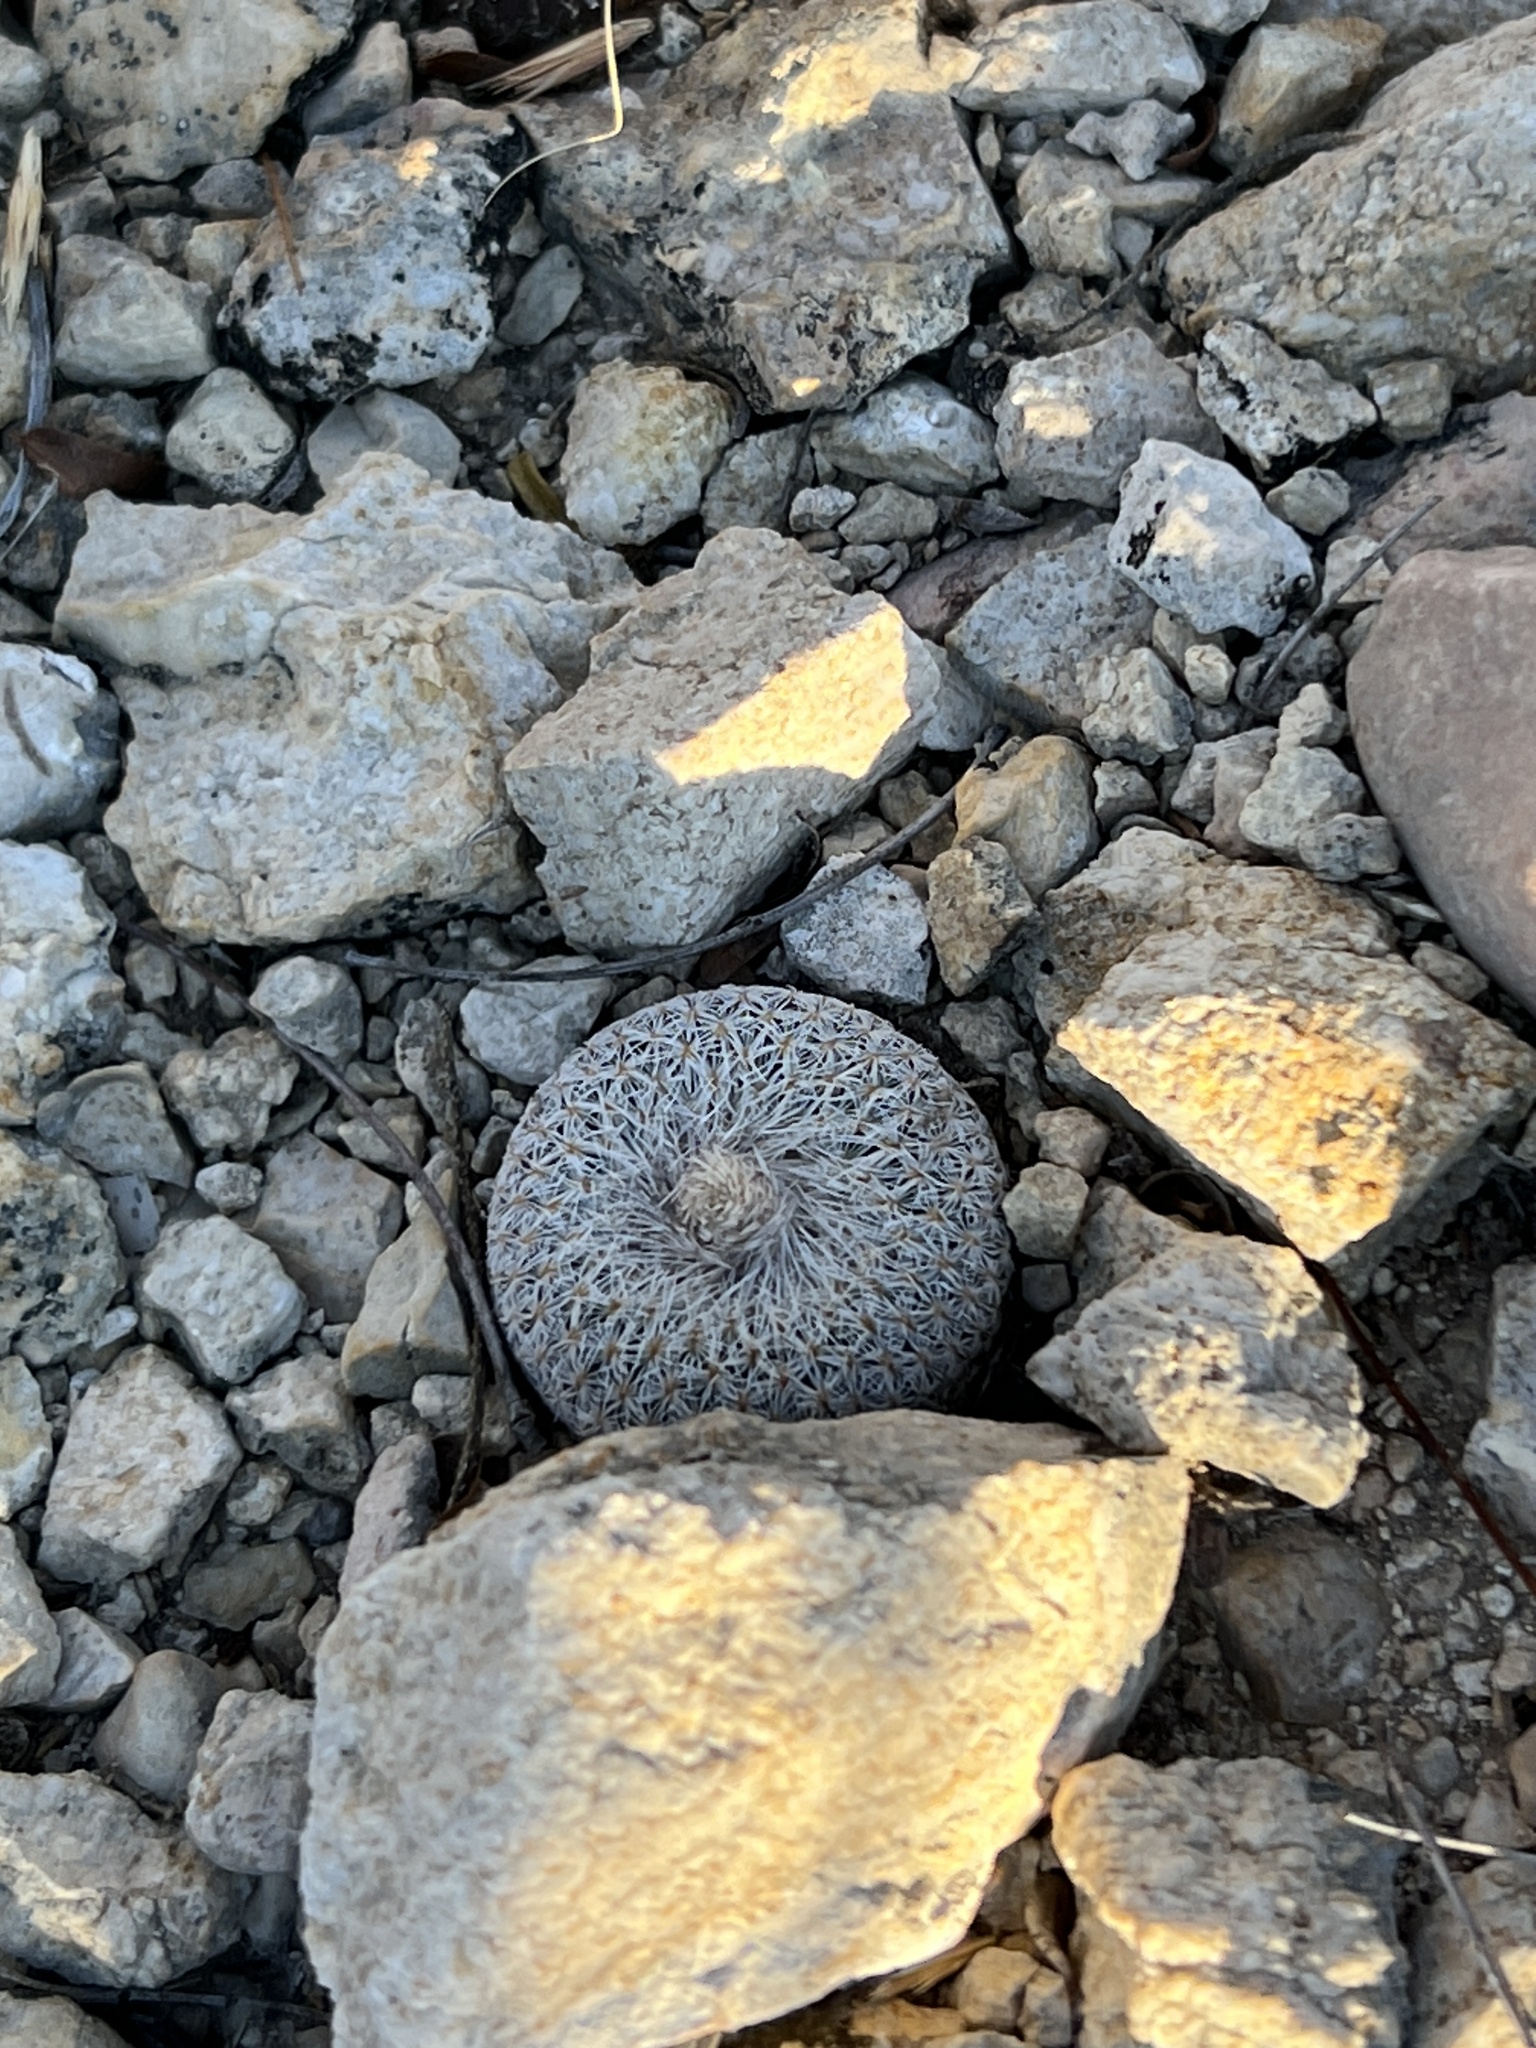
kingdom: Plantae
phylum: Tracheophyta
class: Magnoliopsida
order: Caryophyllales
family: Cactaceae
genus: Epithelantha
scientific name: Epithelantha micromeris
